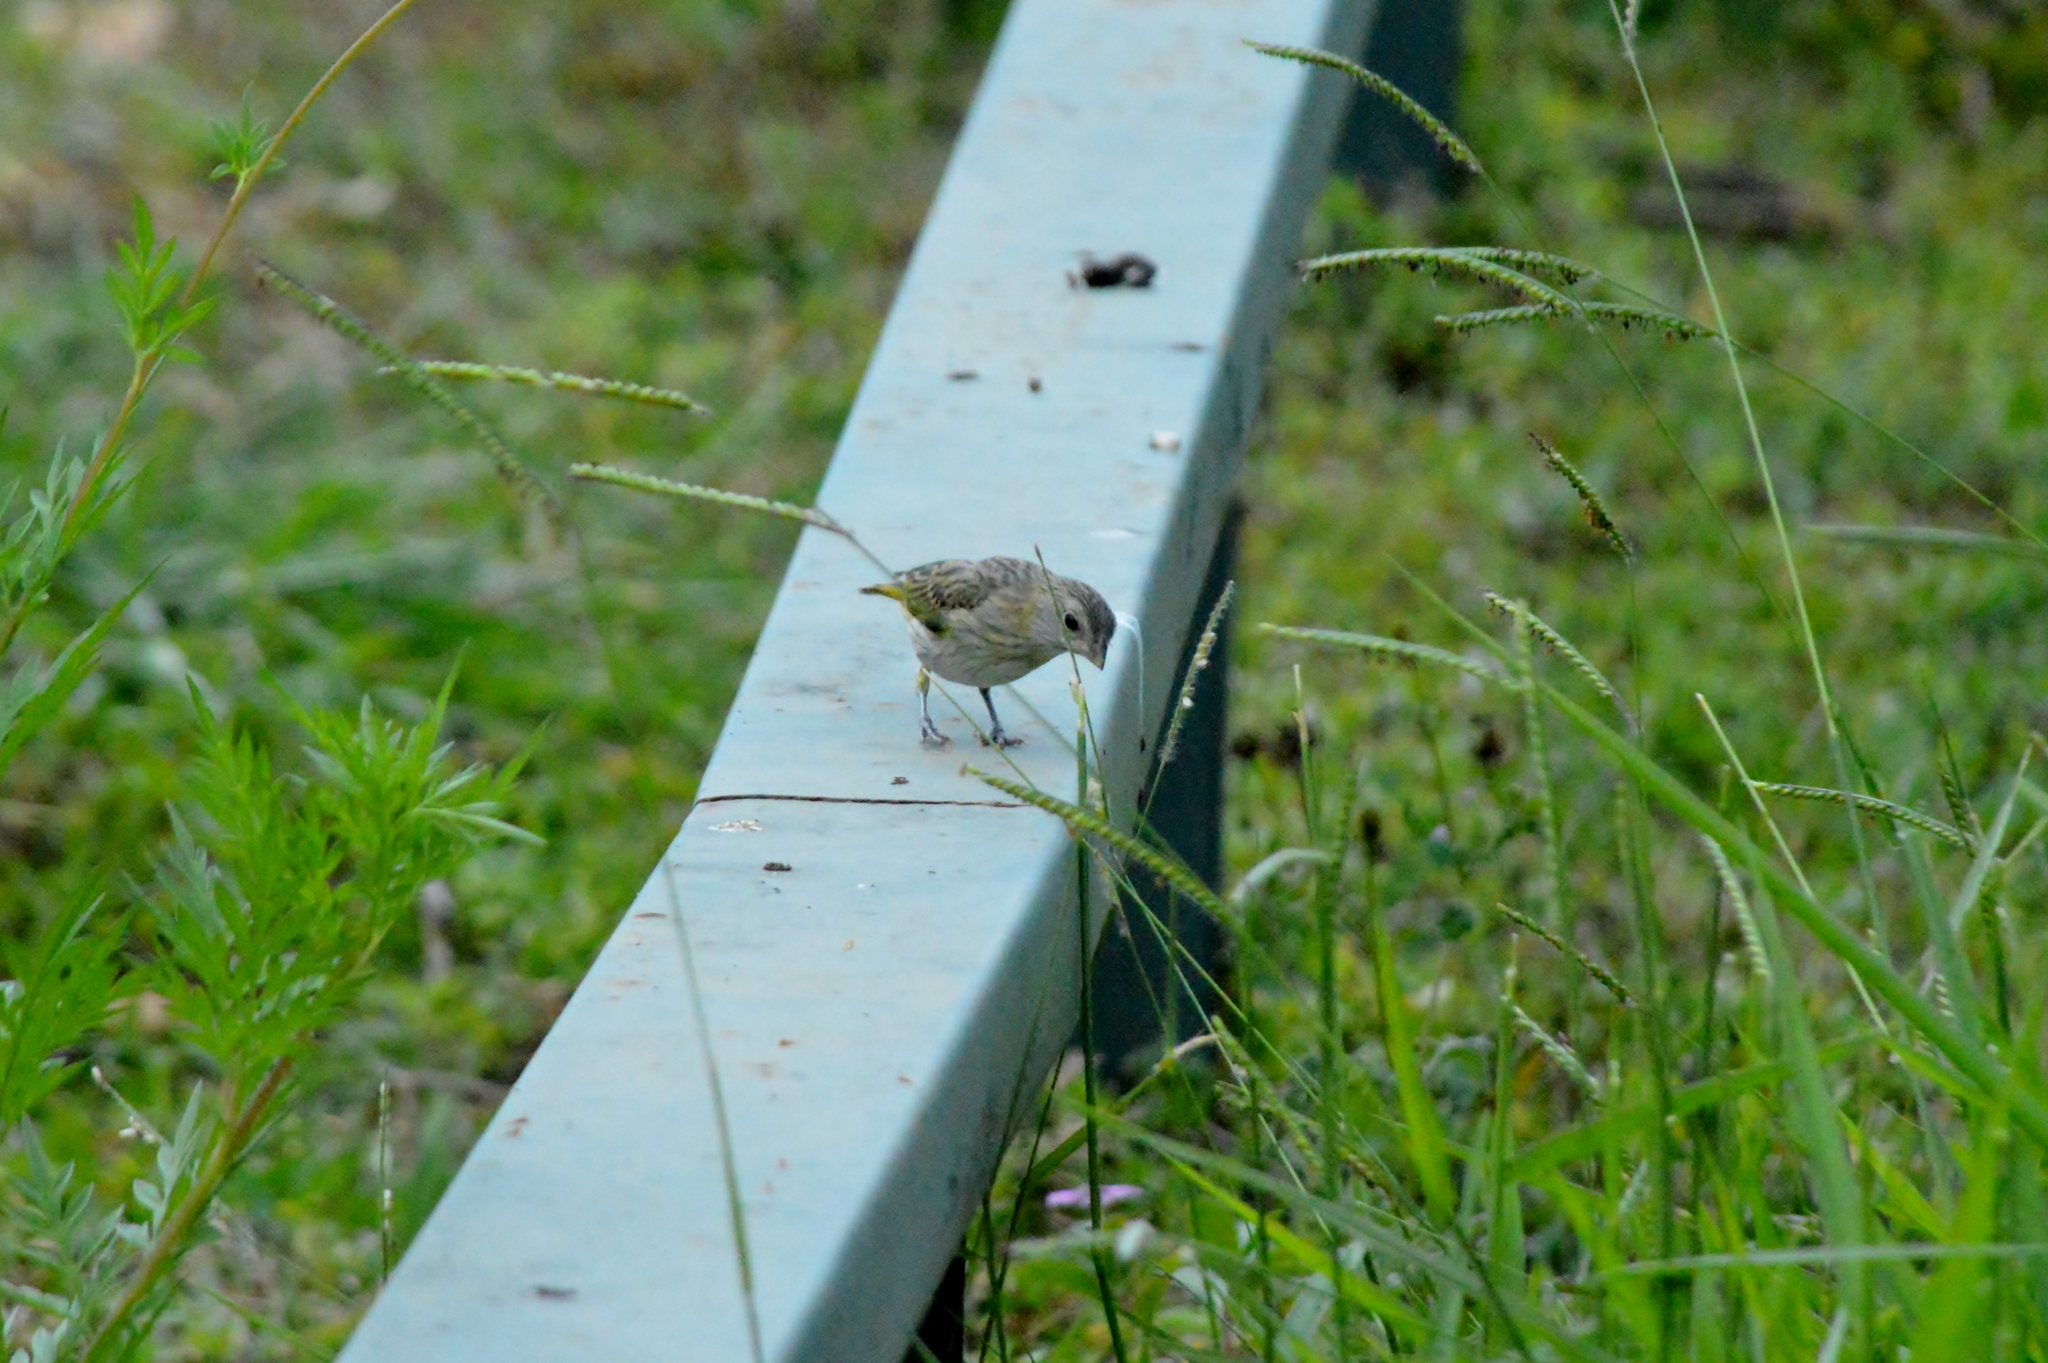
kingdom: Animalia
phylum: Chordata
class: Aves
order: Passeriformes
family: Thraupidae
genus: Sicalis
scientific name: Sicalis flaveola
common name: Saffron finch
